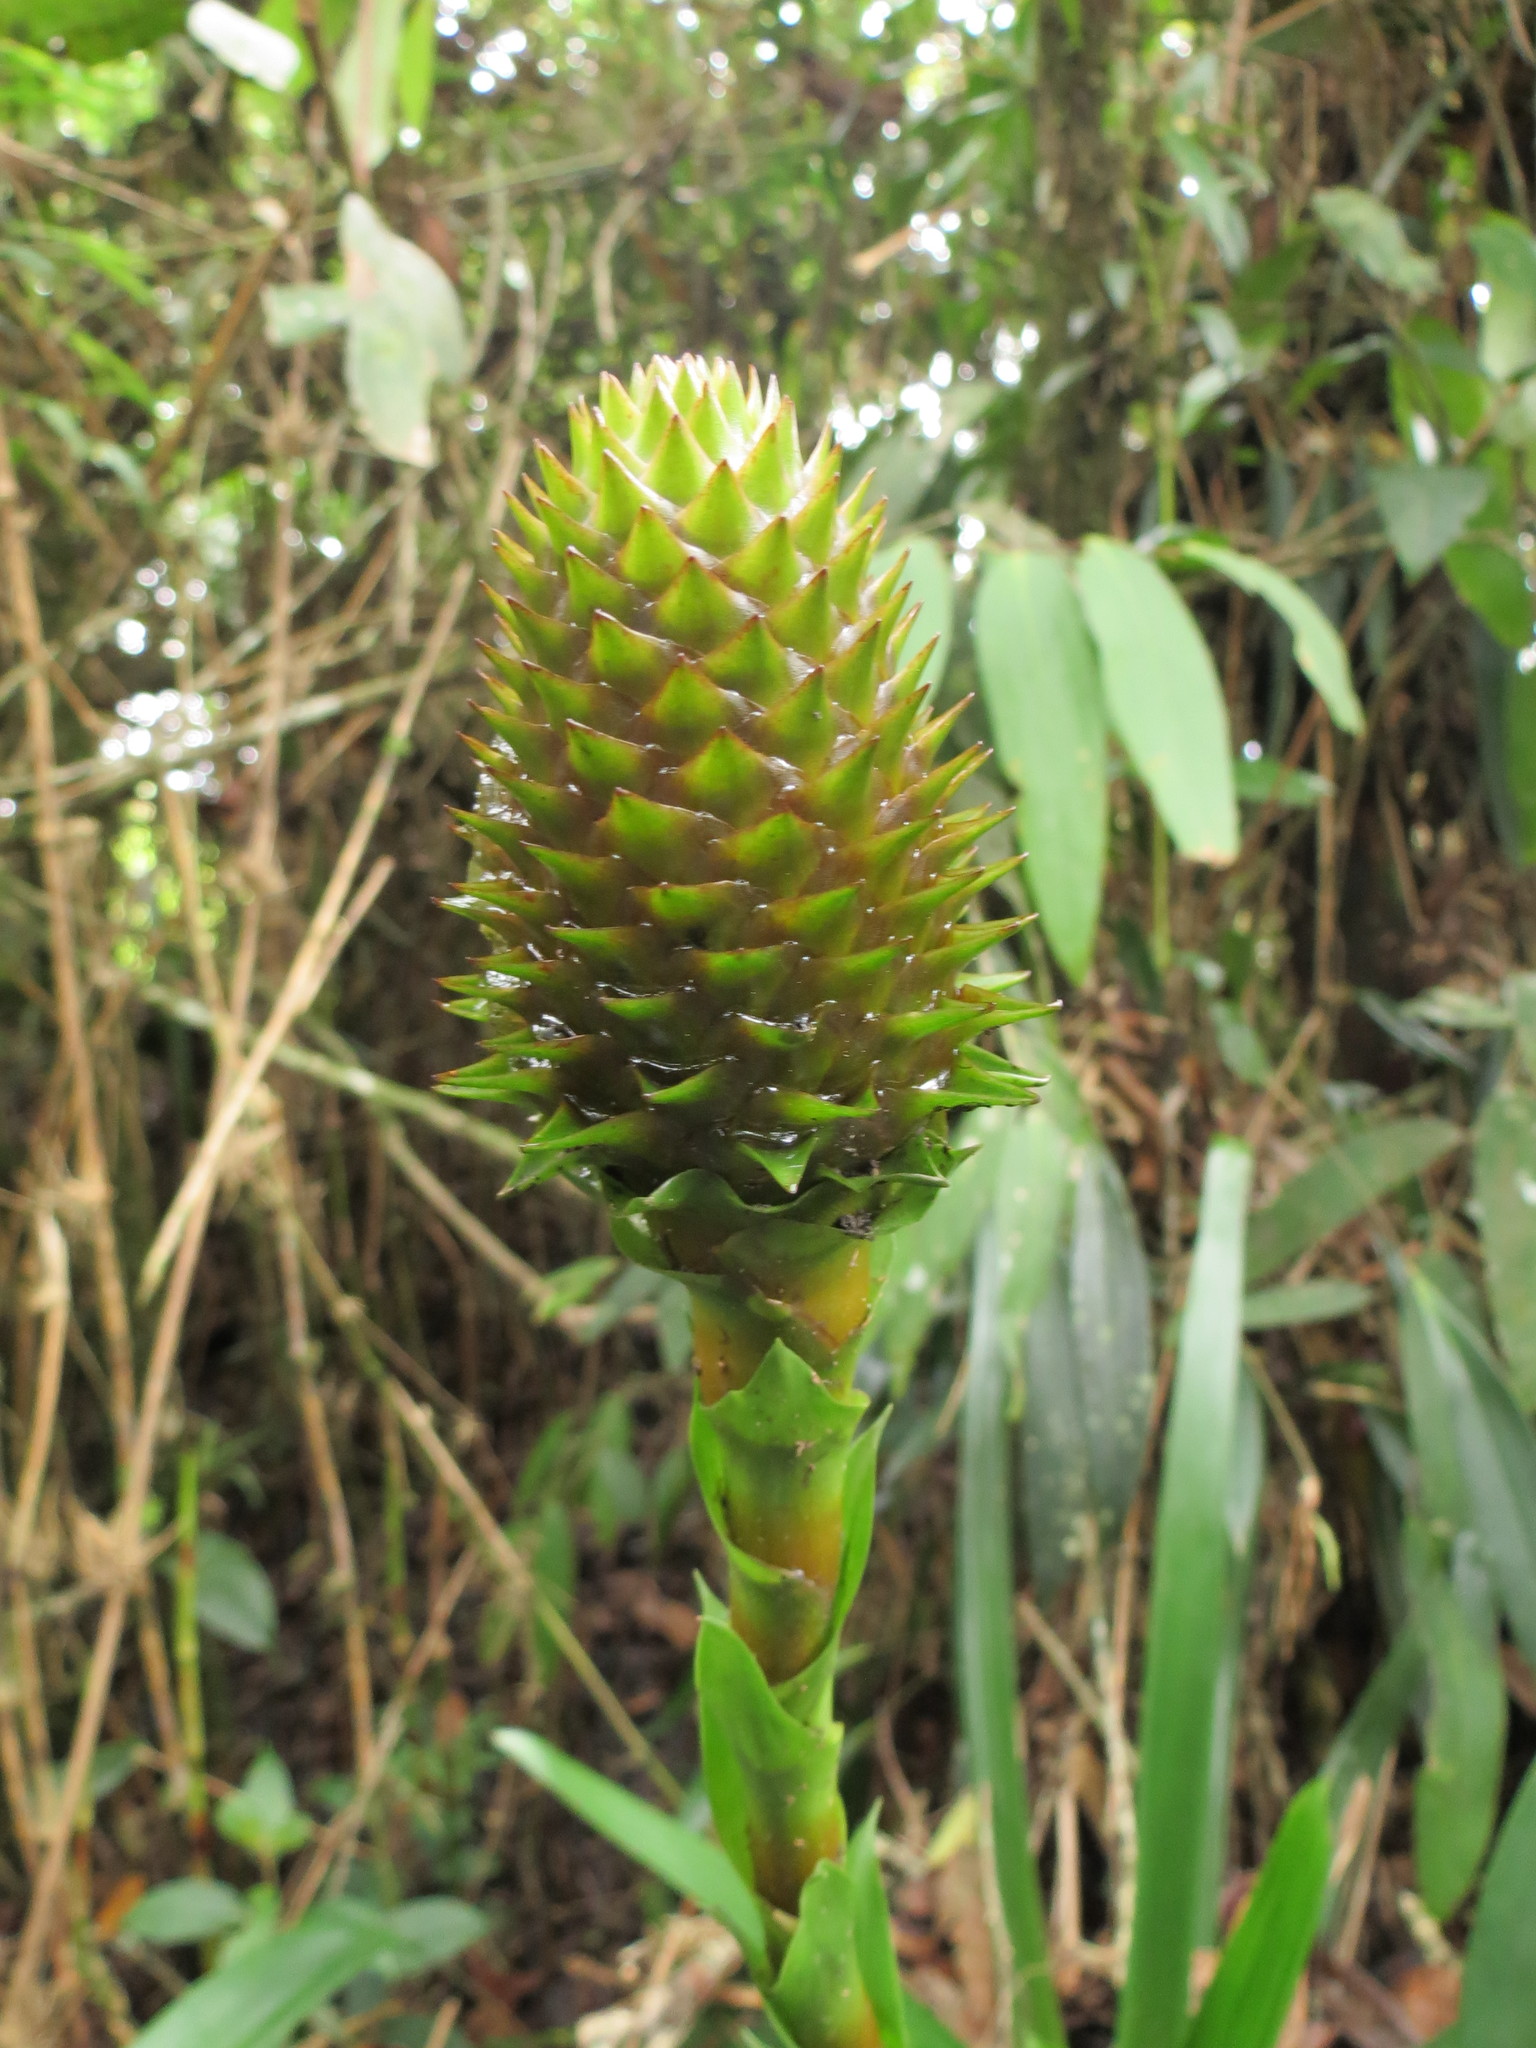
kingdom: Plantae
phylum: Tracheophyta
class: Liliopsida
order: Poales
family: Bromeliaceae
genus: Guzmania
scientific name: Guzmania triangularis
